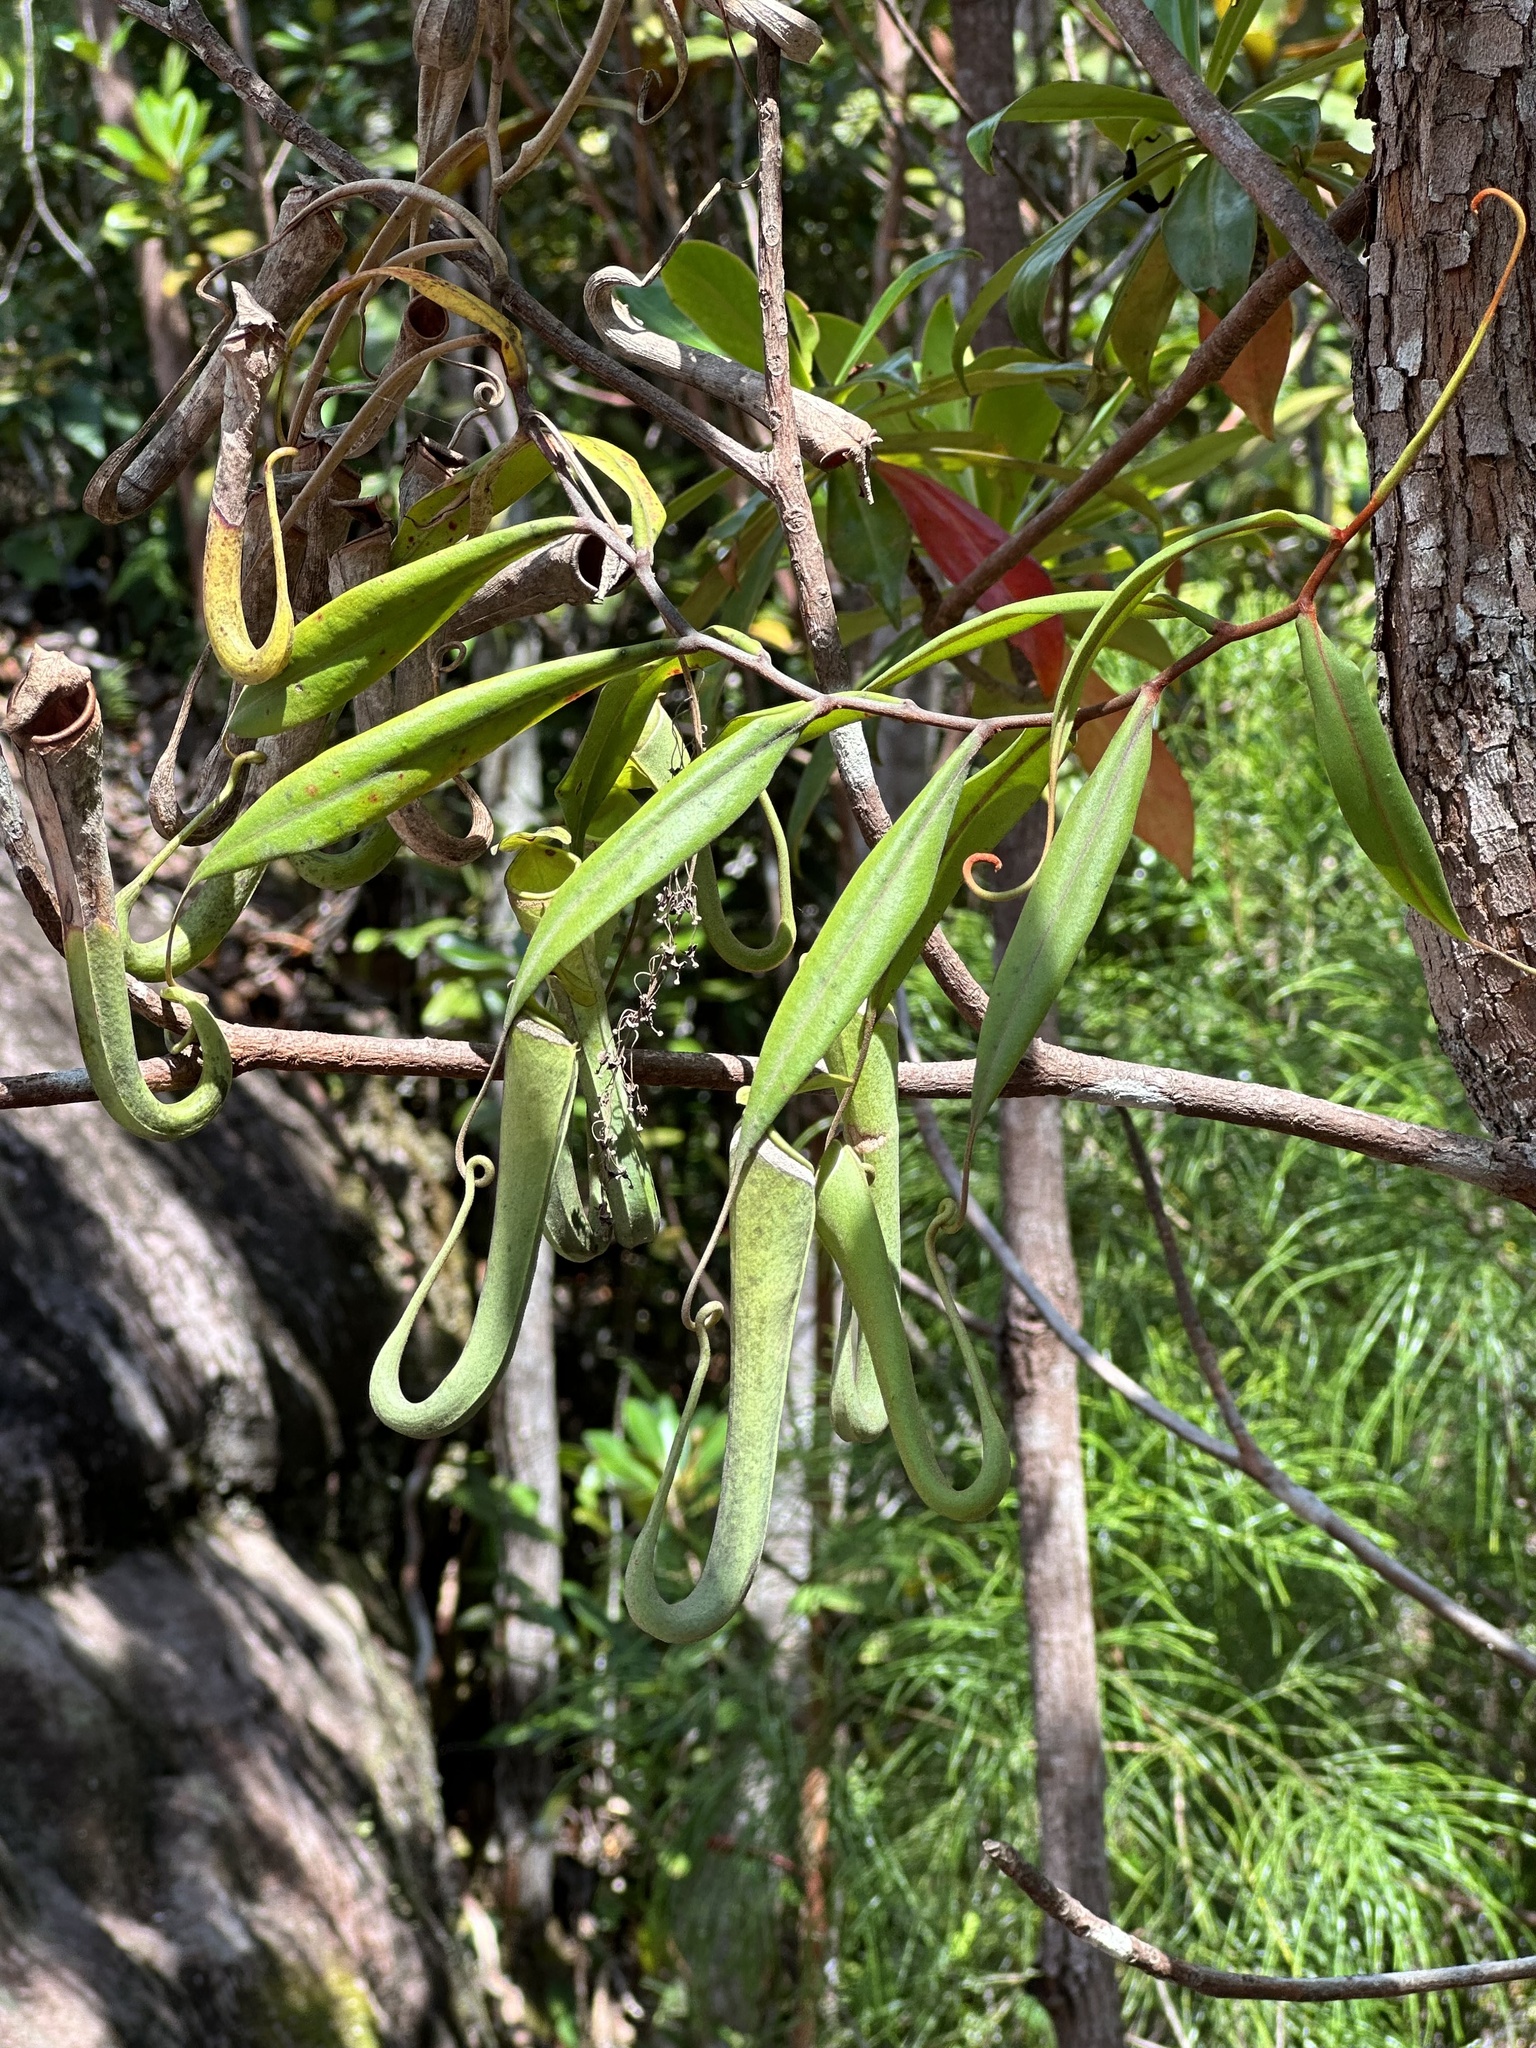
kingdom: Plantae
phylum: Tracheophyta
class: Magnoliopsida
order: Caryophyllales
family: Nepenthaceae
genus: Nepenthes
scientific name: Nepenthes albomarginata
